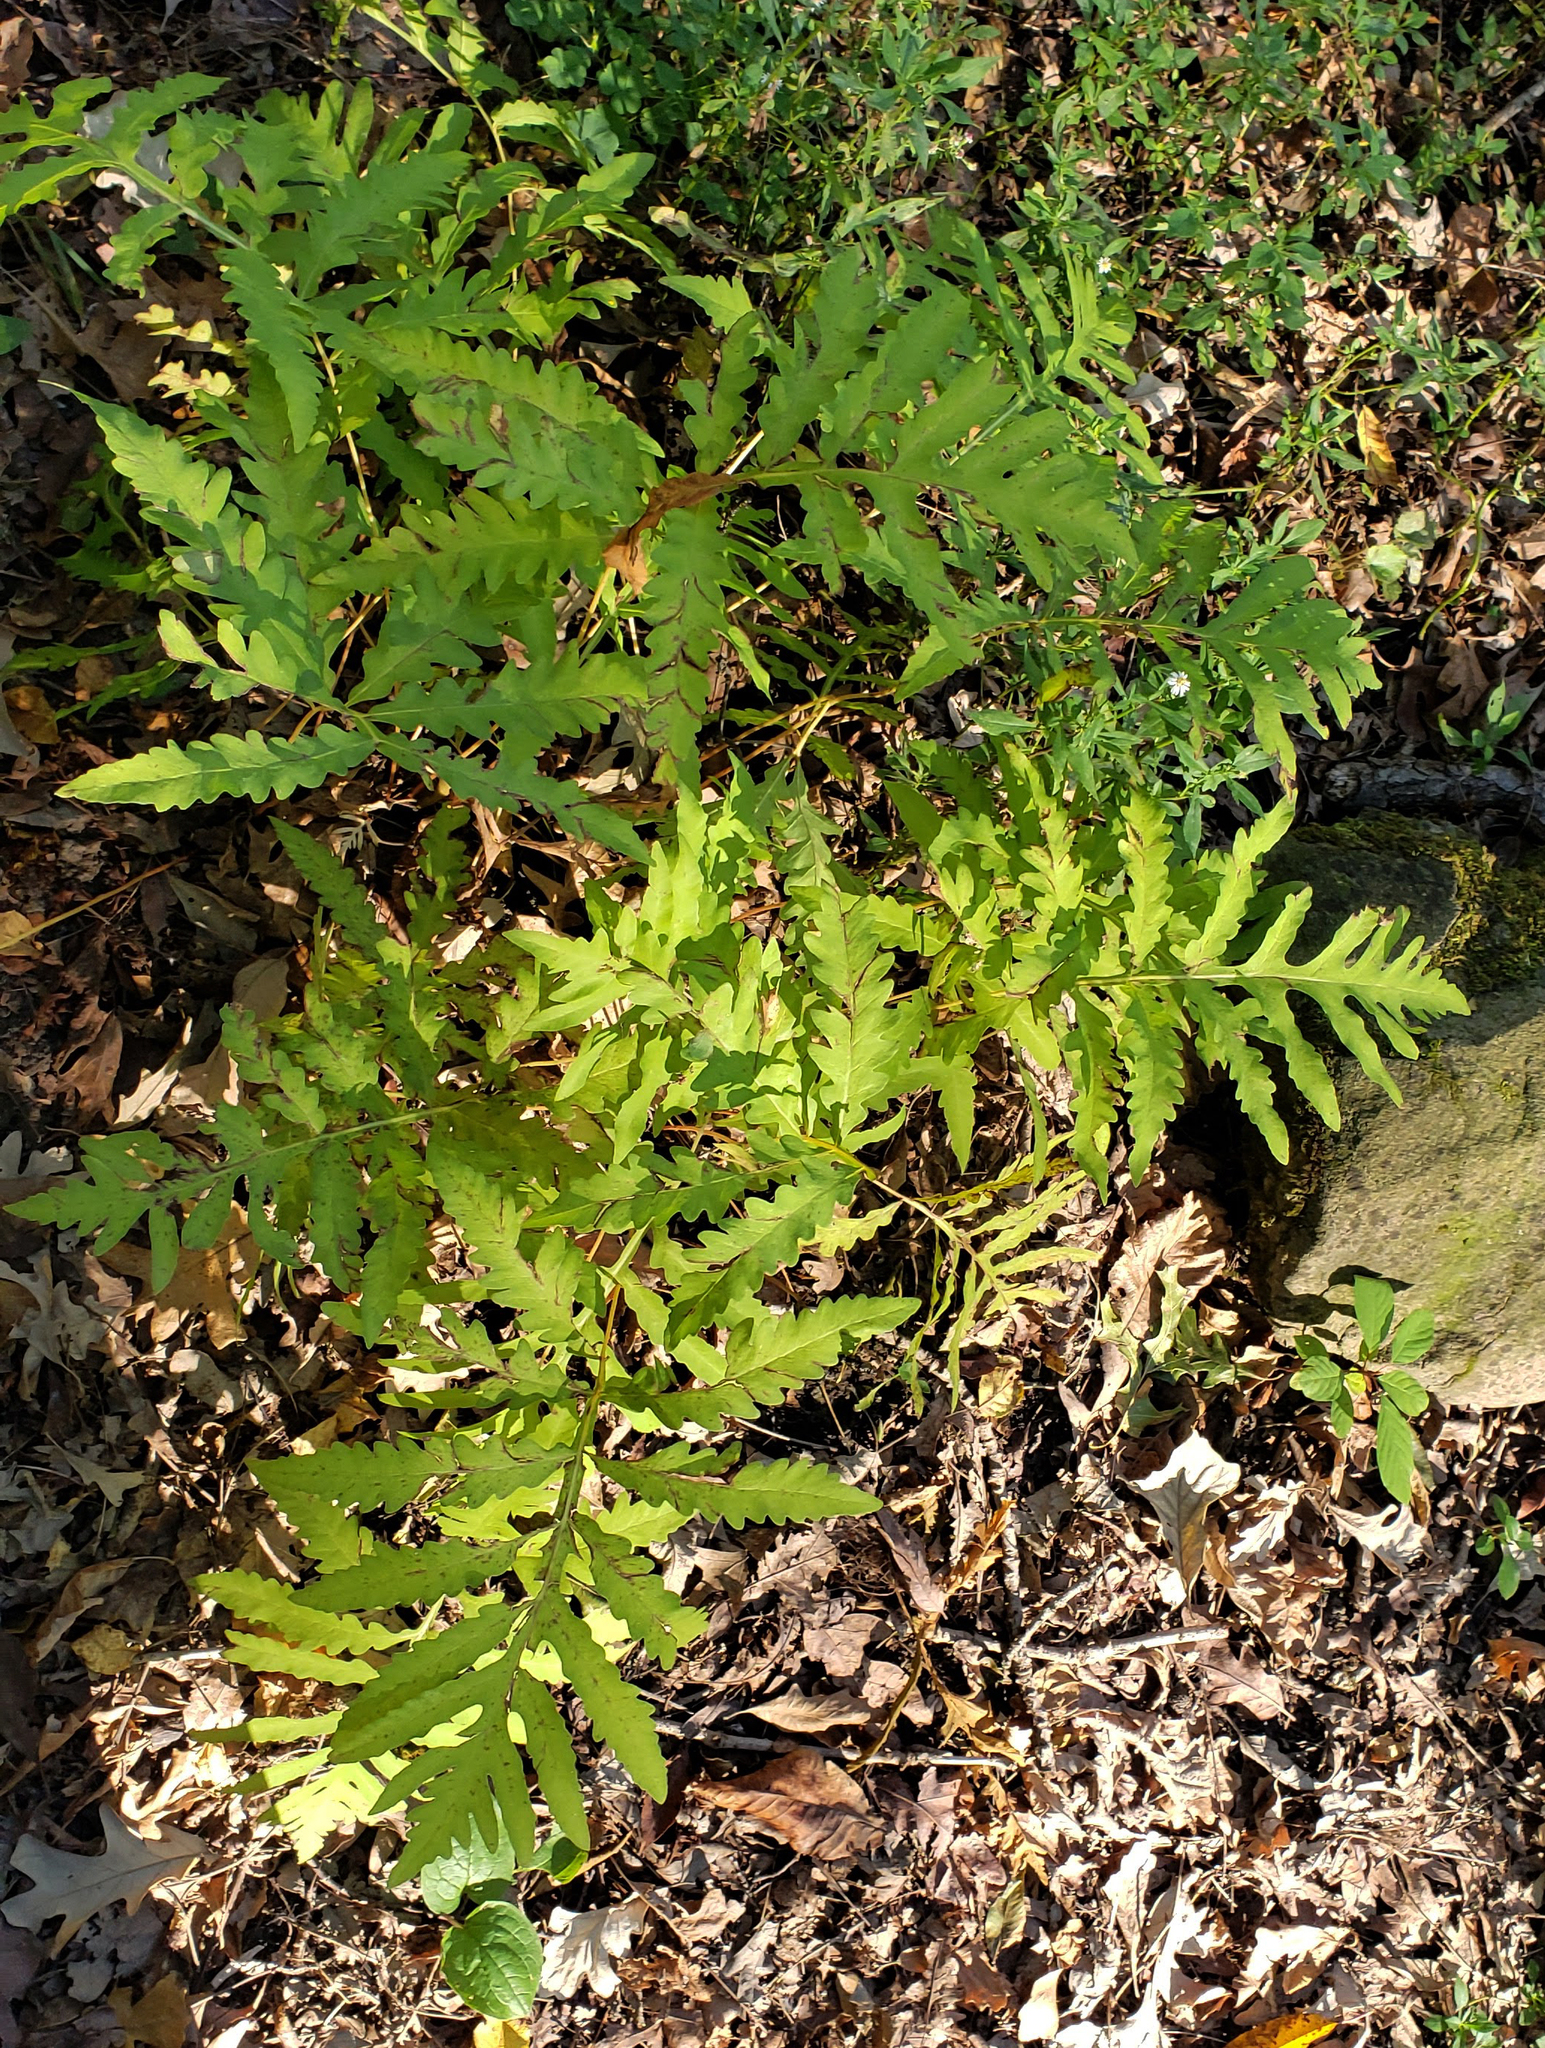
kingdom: Plantae
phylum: Tracheophyta
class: Polypodiopsida
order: Polypodiales
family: Onocleaceae
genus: Onoclea
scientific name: Onoclea sensibilis
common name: Sensitive fern
